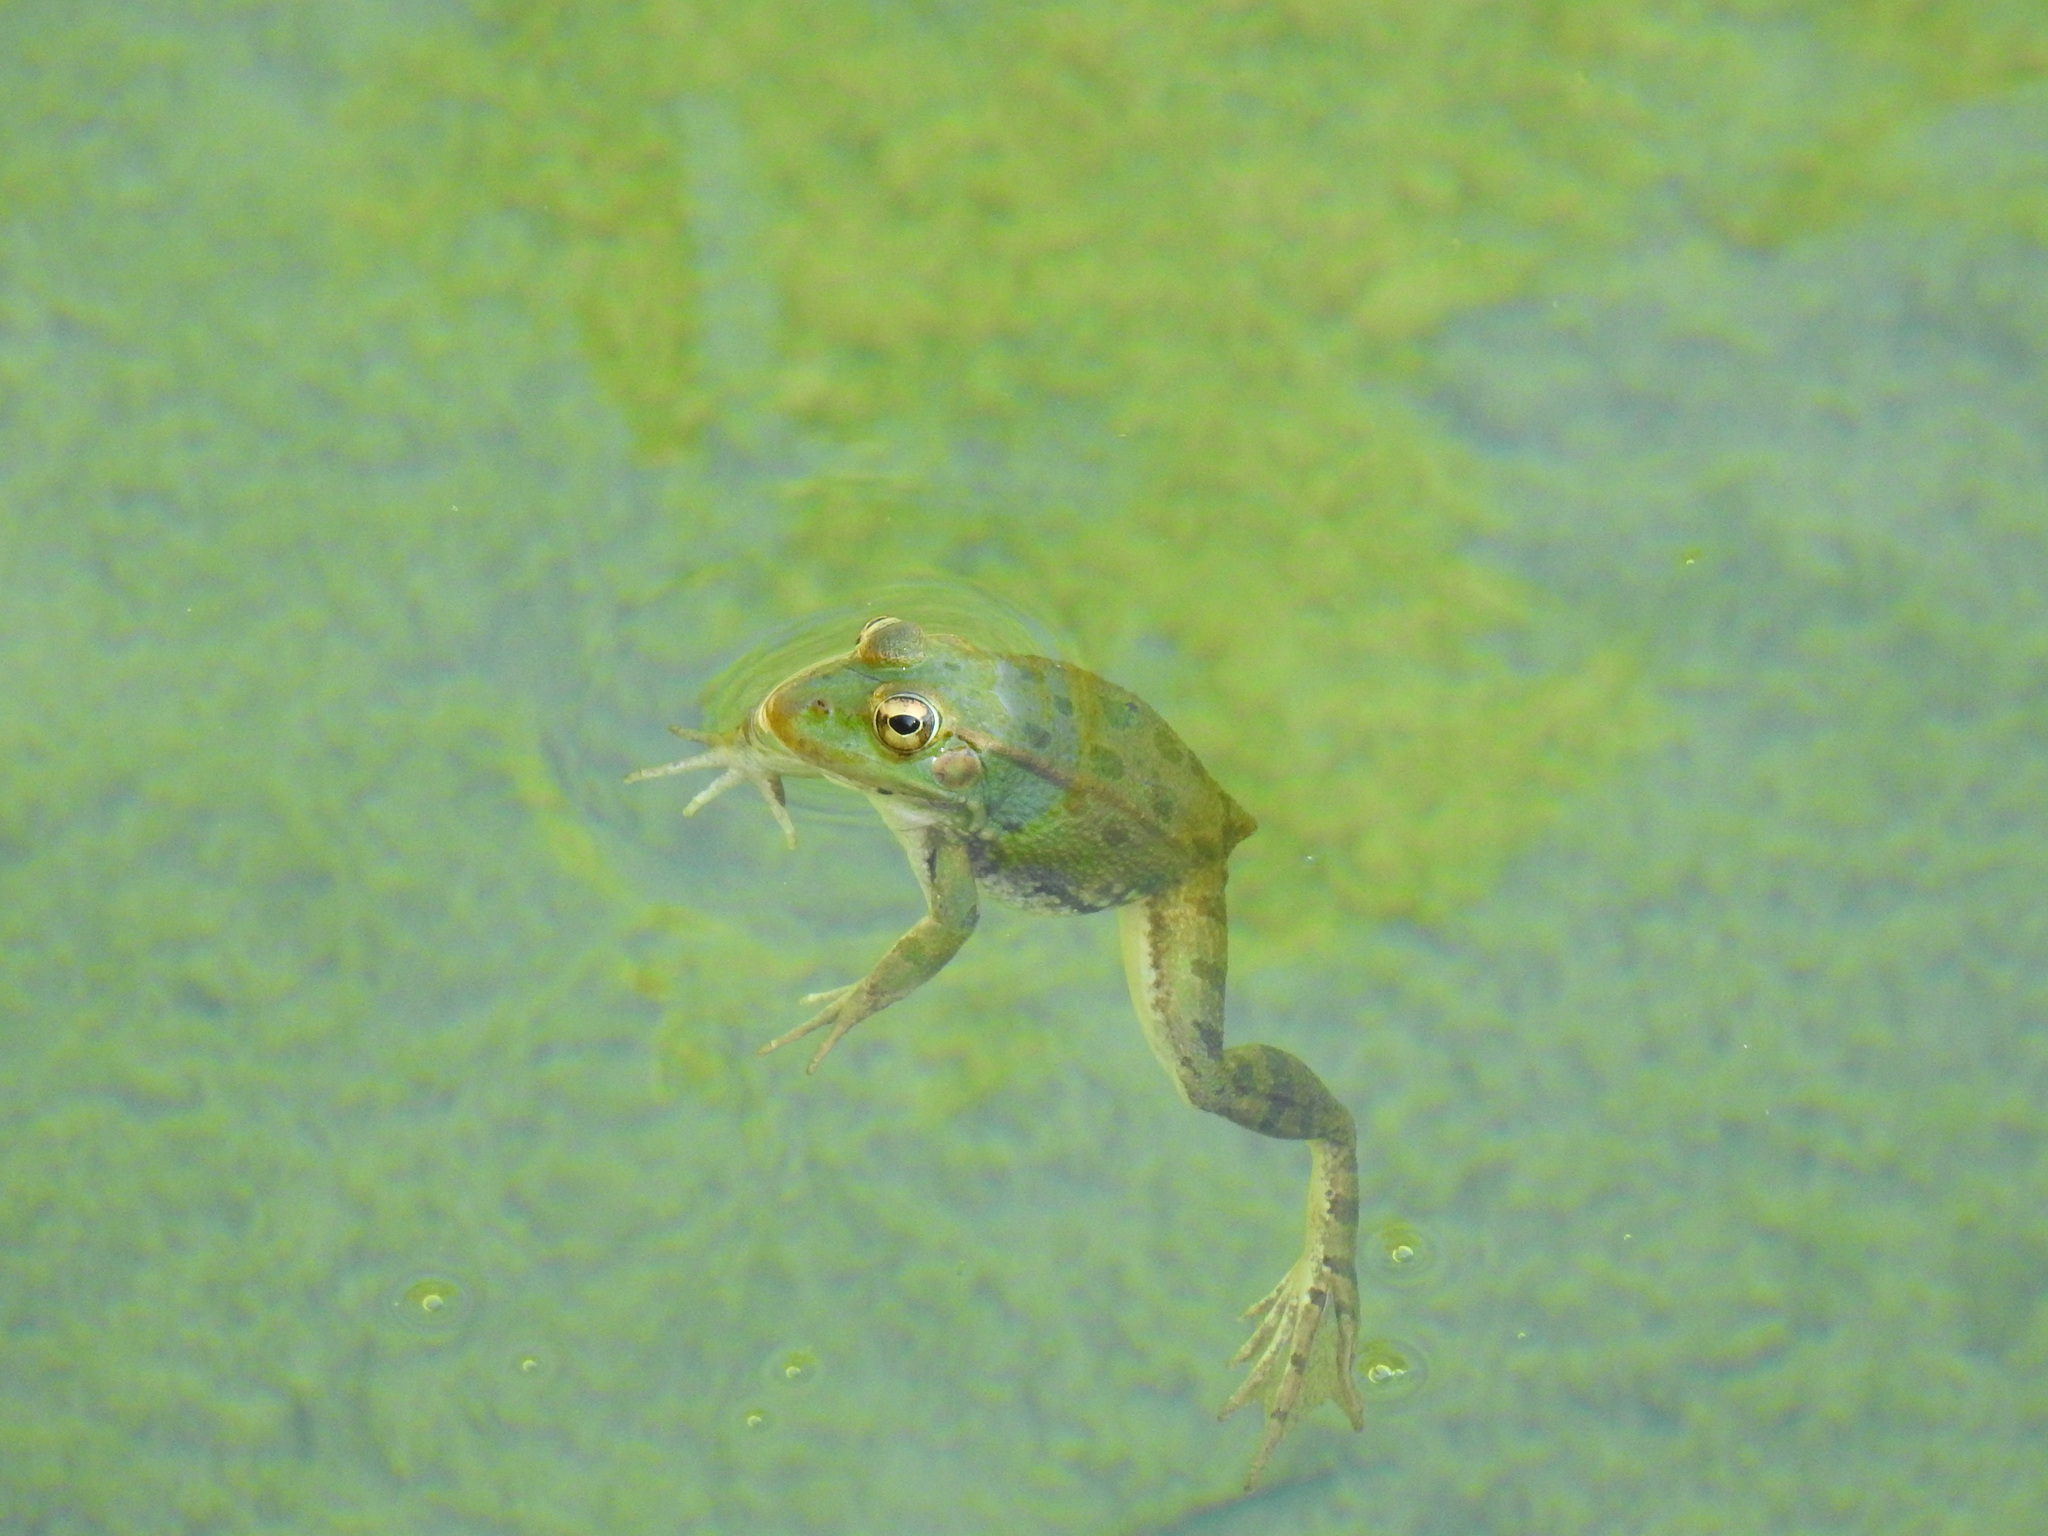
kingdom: Animalia
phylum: Chordata
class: Amphibia
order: Anura
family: Ranidae
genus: Pelophylax
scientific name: Pelophylax perezi
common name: Perez's frog
